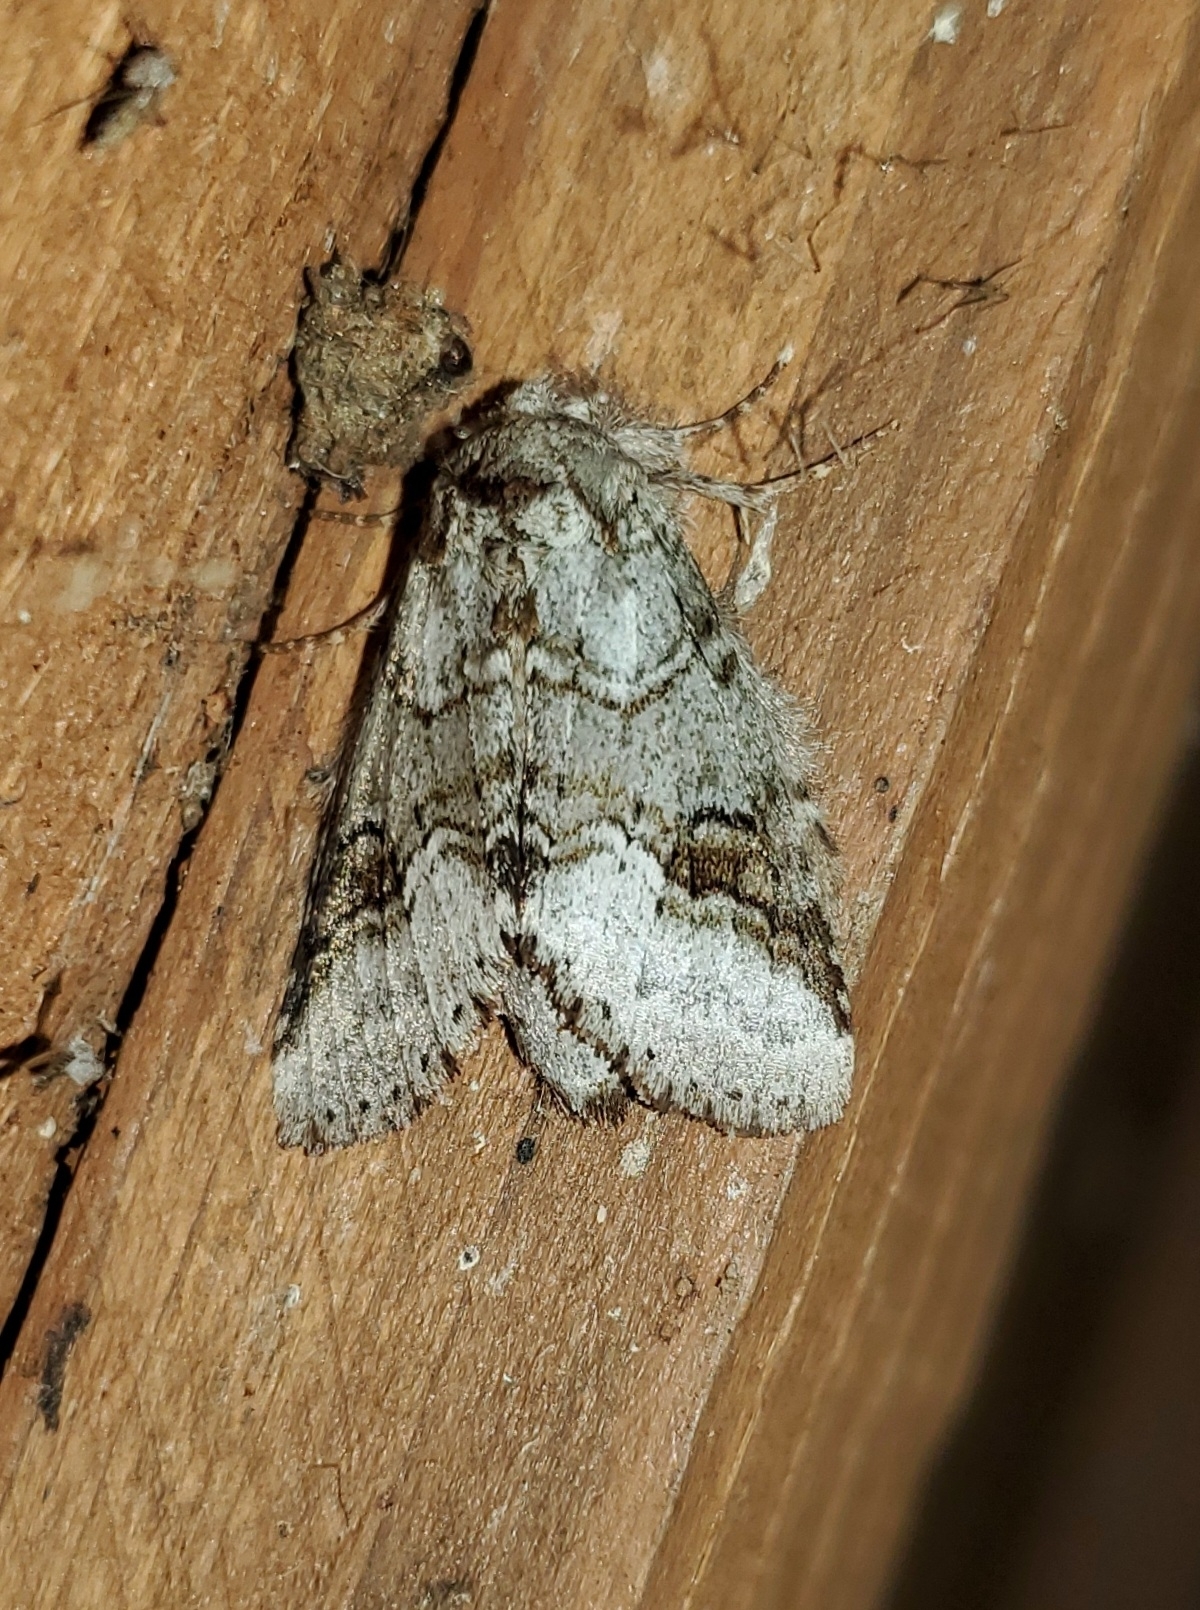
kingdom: Animalia
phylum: Arthropoda
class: Insecta
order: Lepidoptera
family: Notodontidae
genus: Lochmaeus
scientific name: Lochmaeus bilineata
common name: Double-lined prominent
